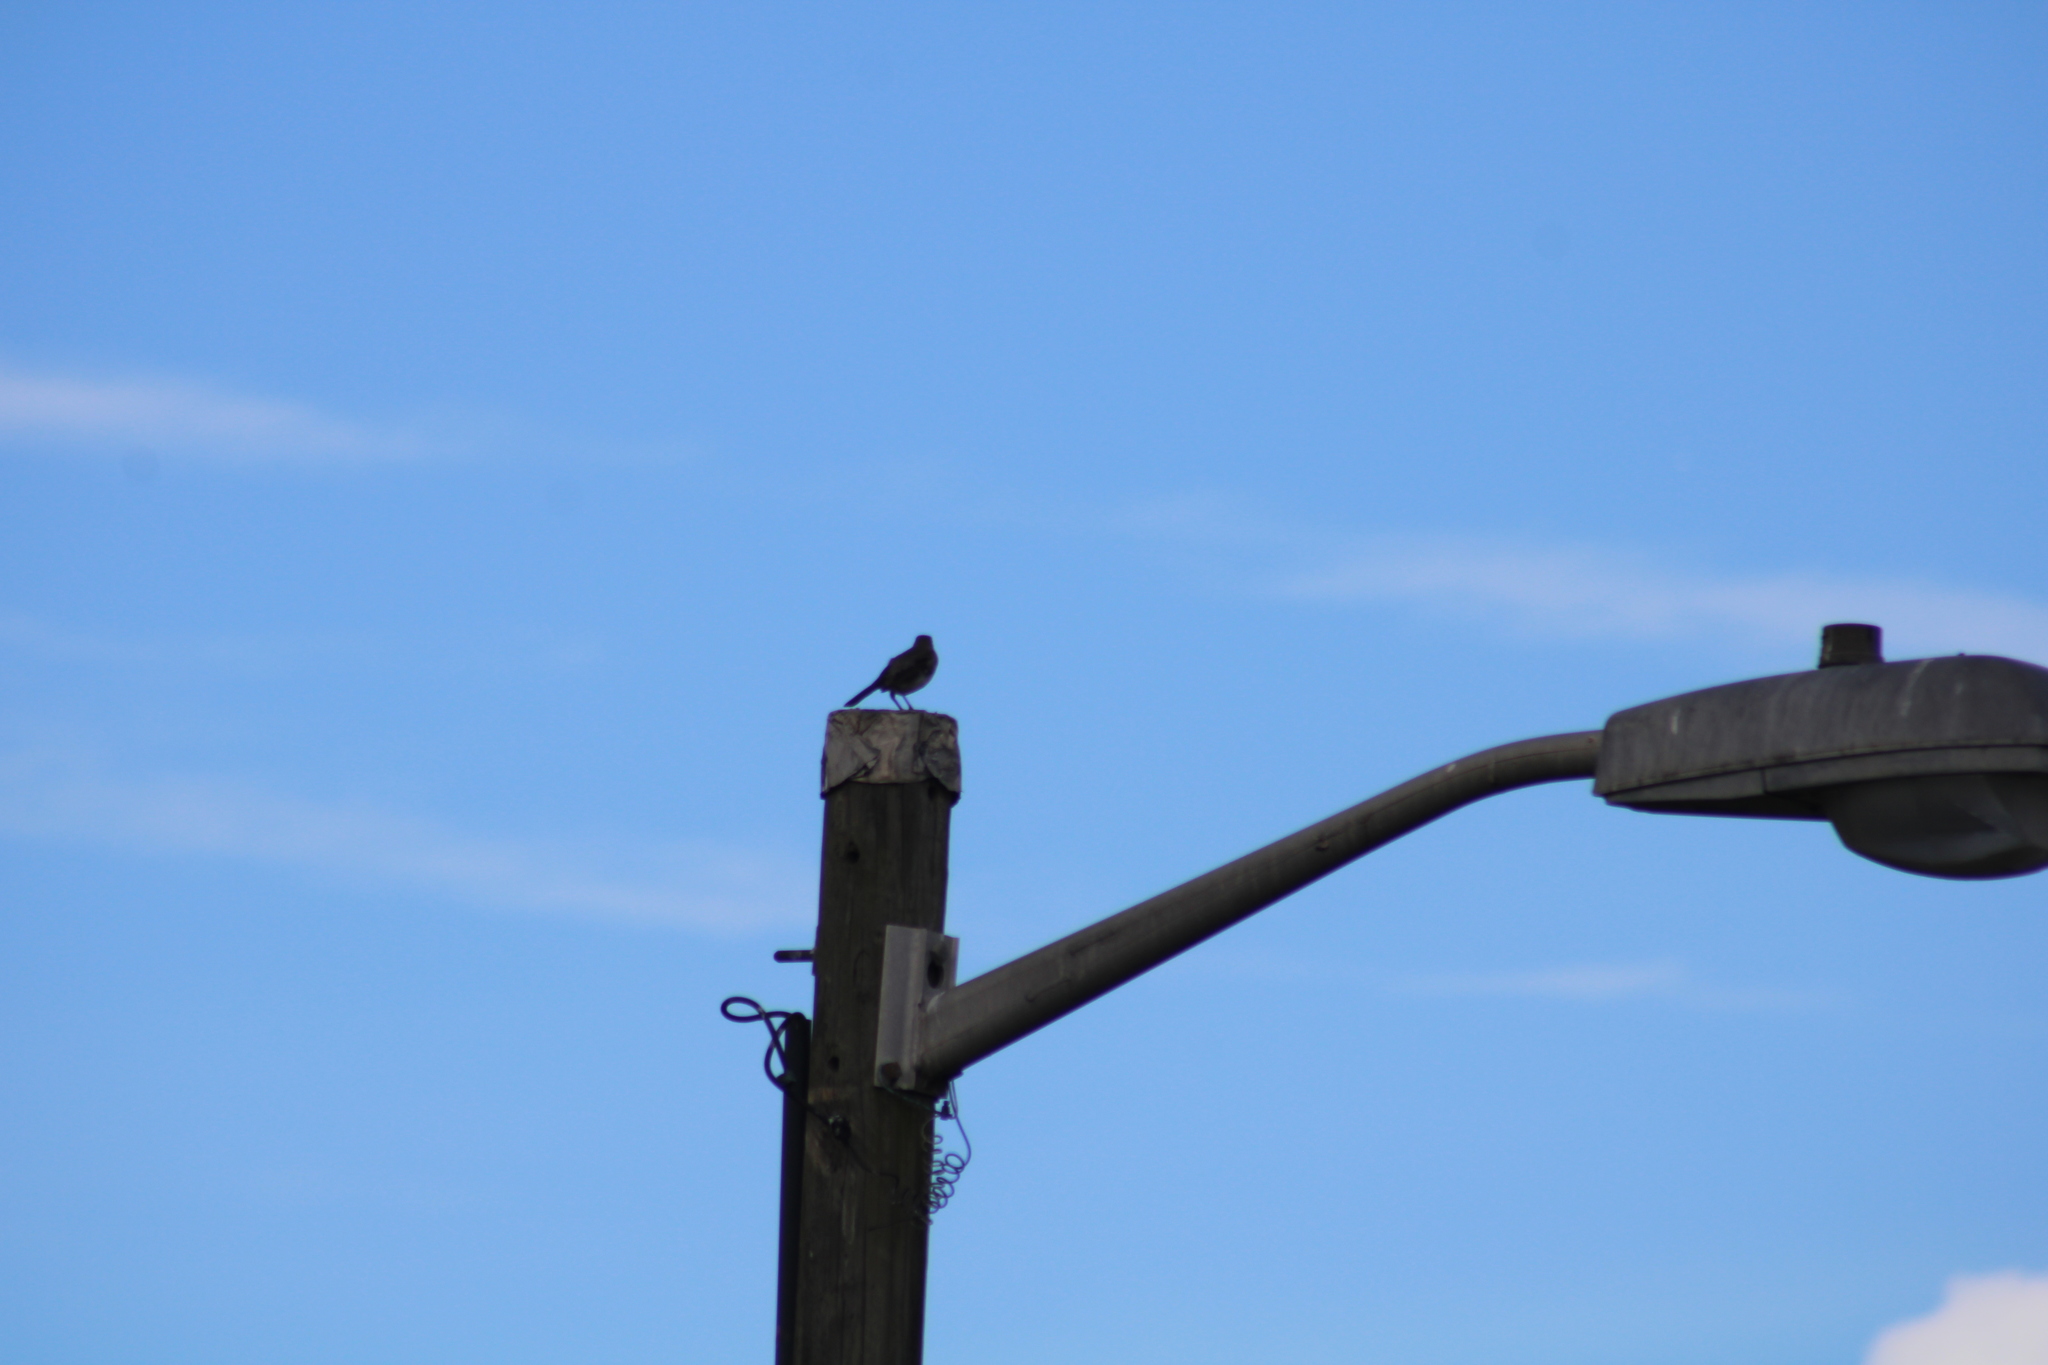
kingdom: Animalia
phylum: Chordata
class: Aves
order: Passeriformes
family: Mimidae
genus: Mimus
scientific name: Mimus polyglottos
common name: Northern mockingbird
